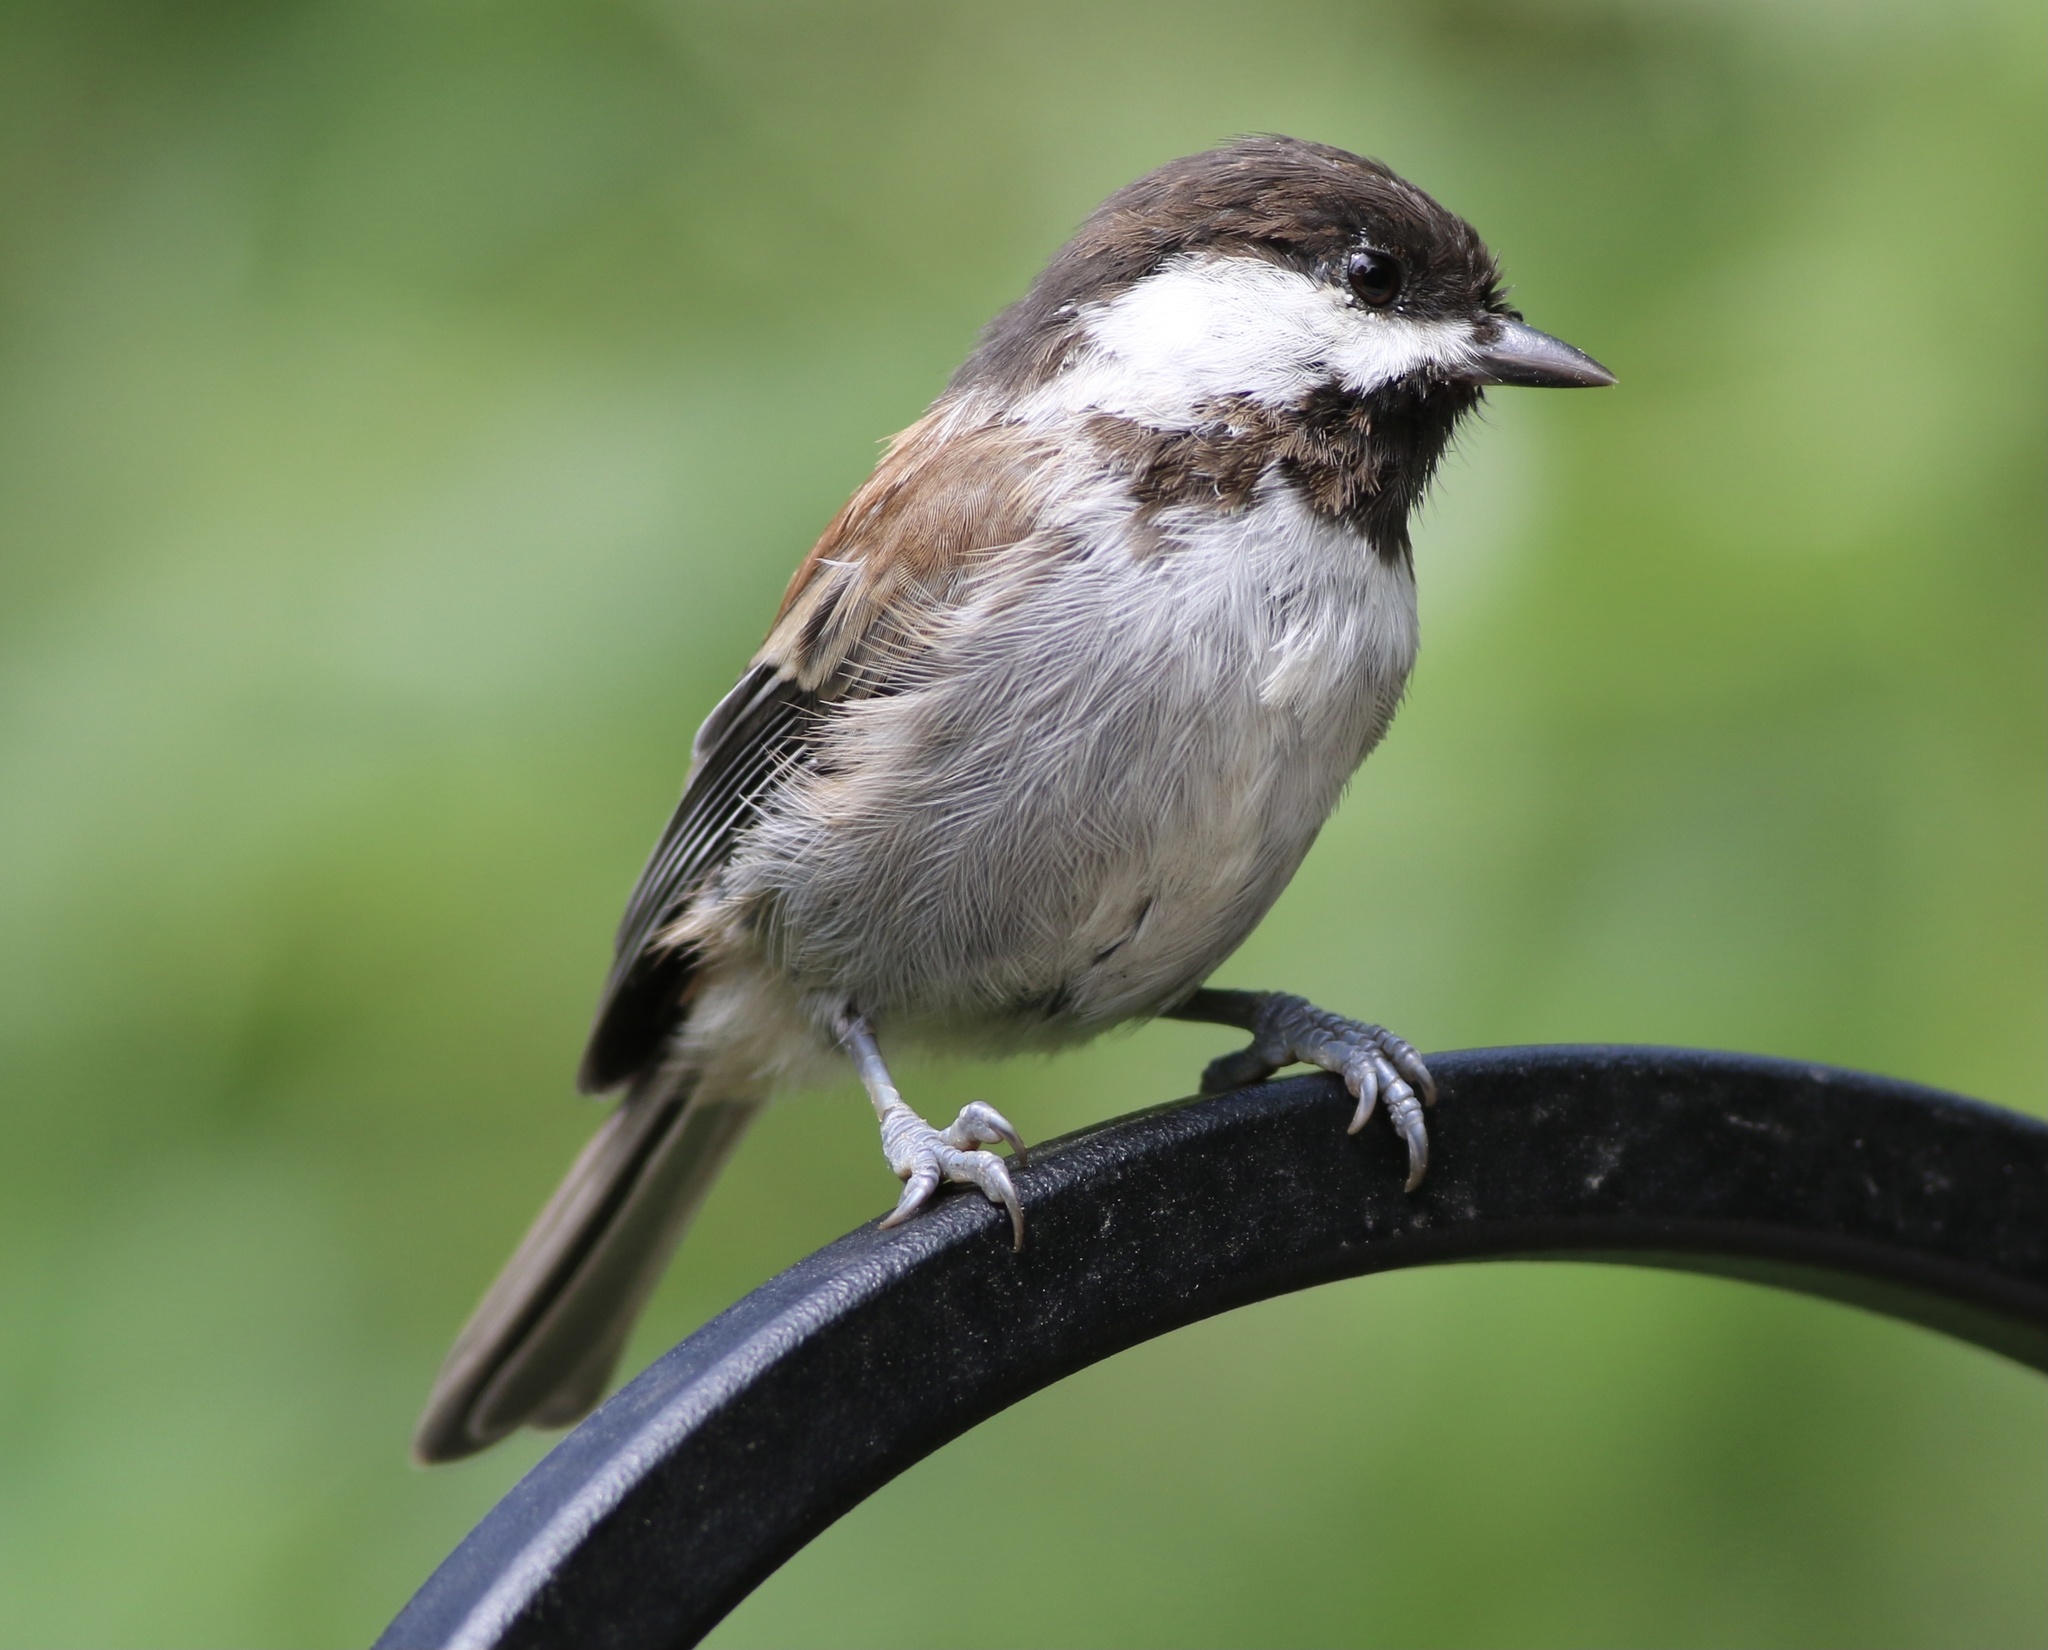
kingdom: Animalia
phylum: Chordata
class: Aves
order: Passeriformes
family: Paridae
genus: Poecile
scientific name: Poecile rufescens
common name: Chestnut-backed chickadee
